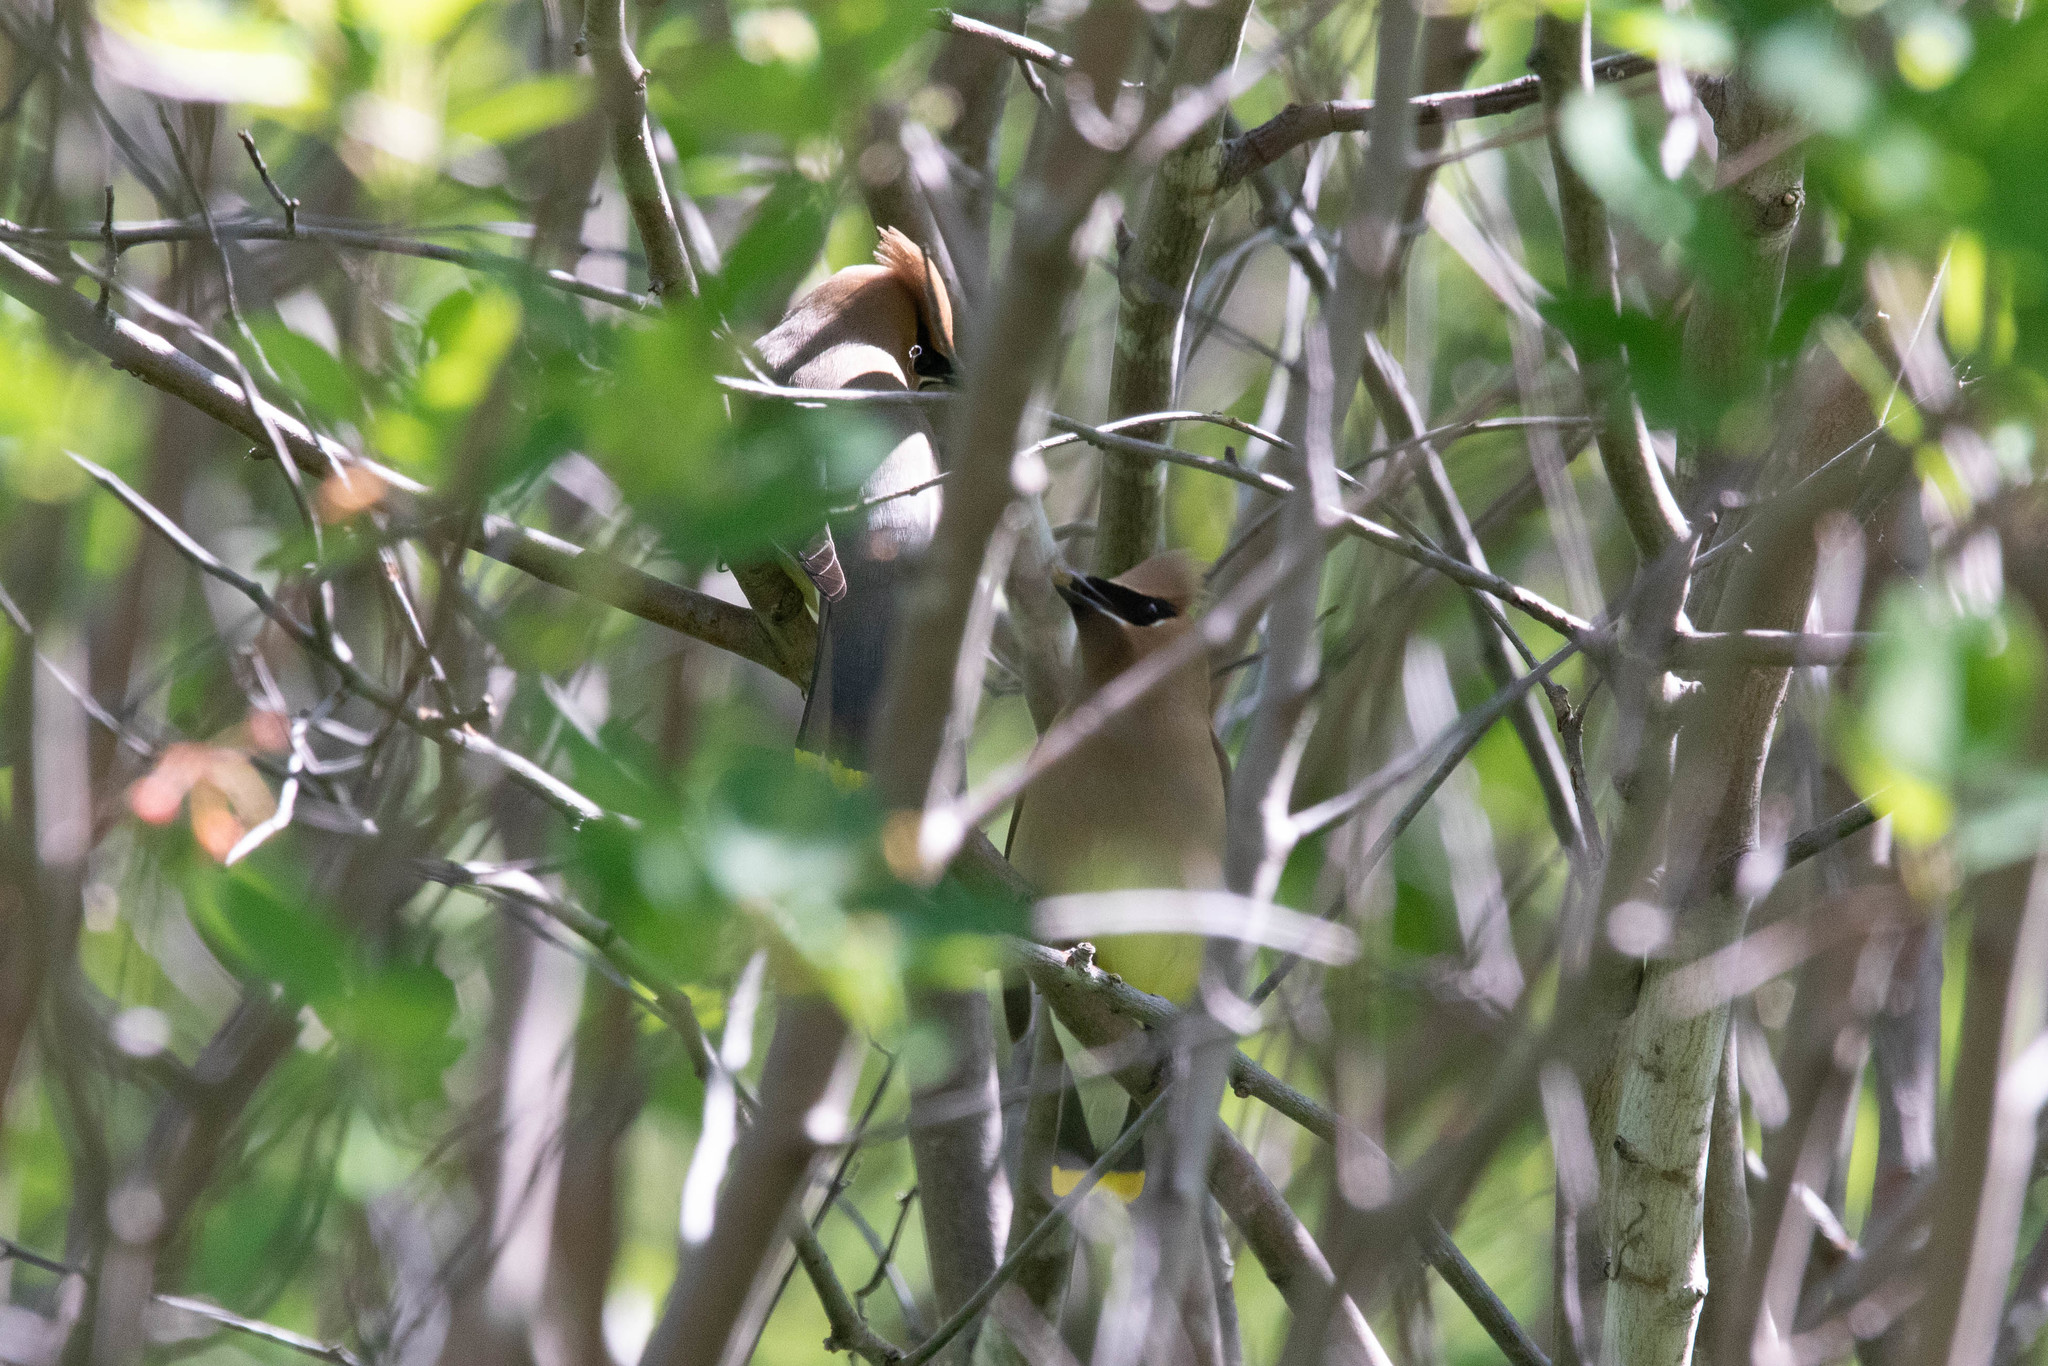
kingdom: Animalia
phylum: Chordata
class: Aves
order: Passeriformes
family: Bombycillidae
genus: Bombycilla
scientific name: Bombycilla cedrorum
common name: Cedar waxwing
